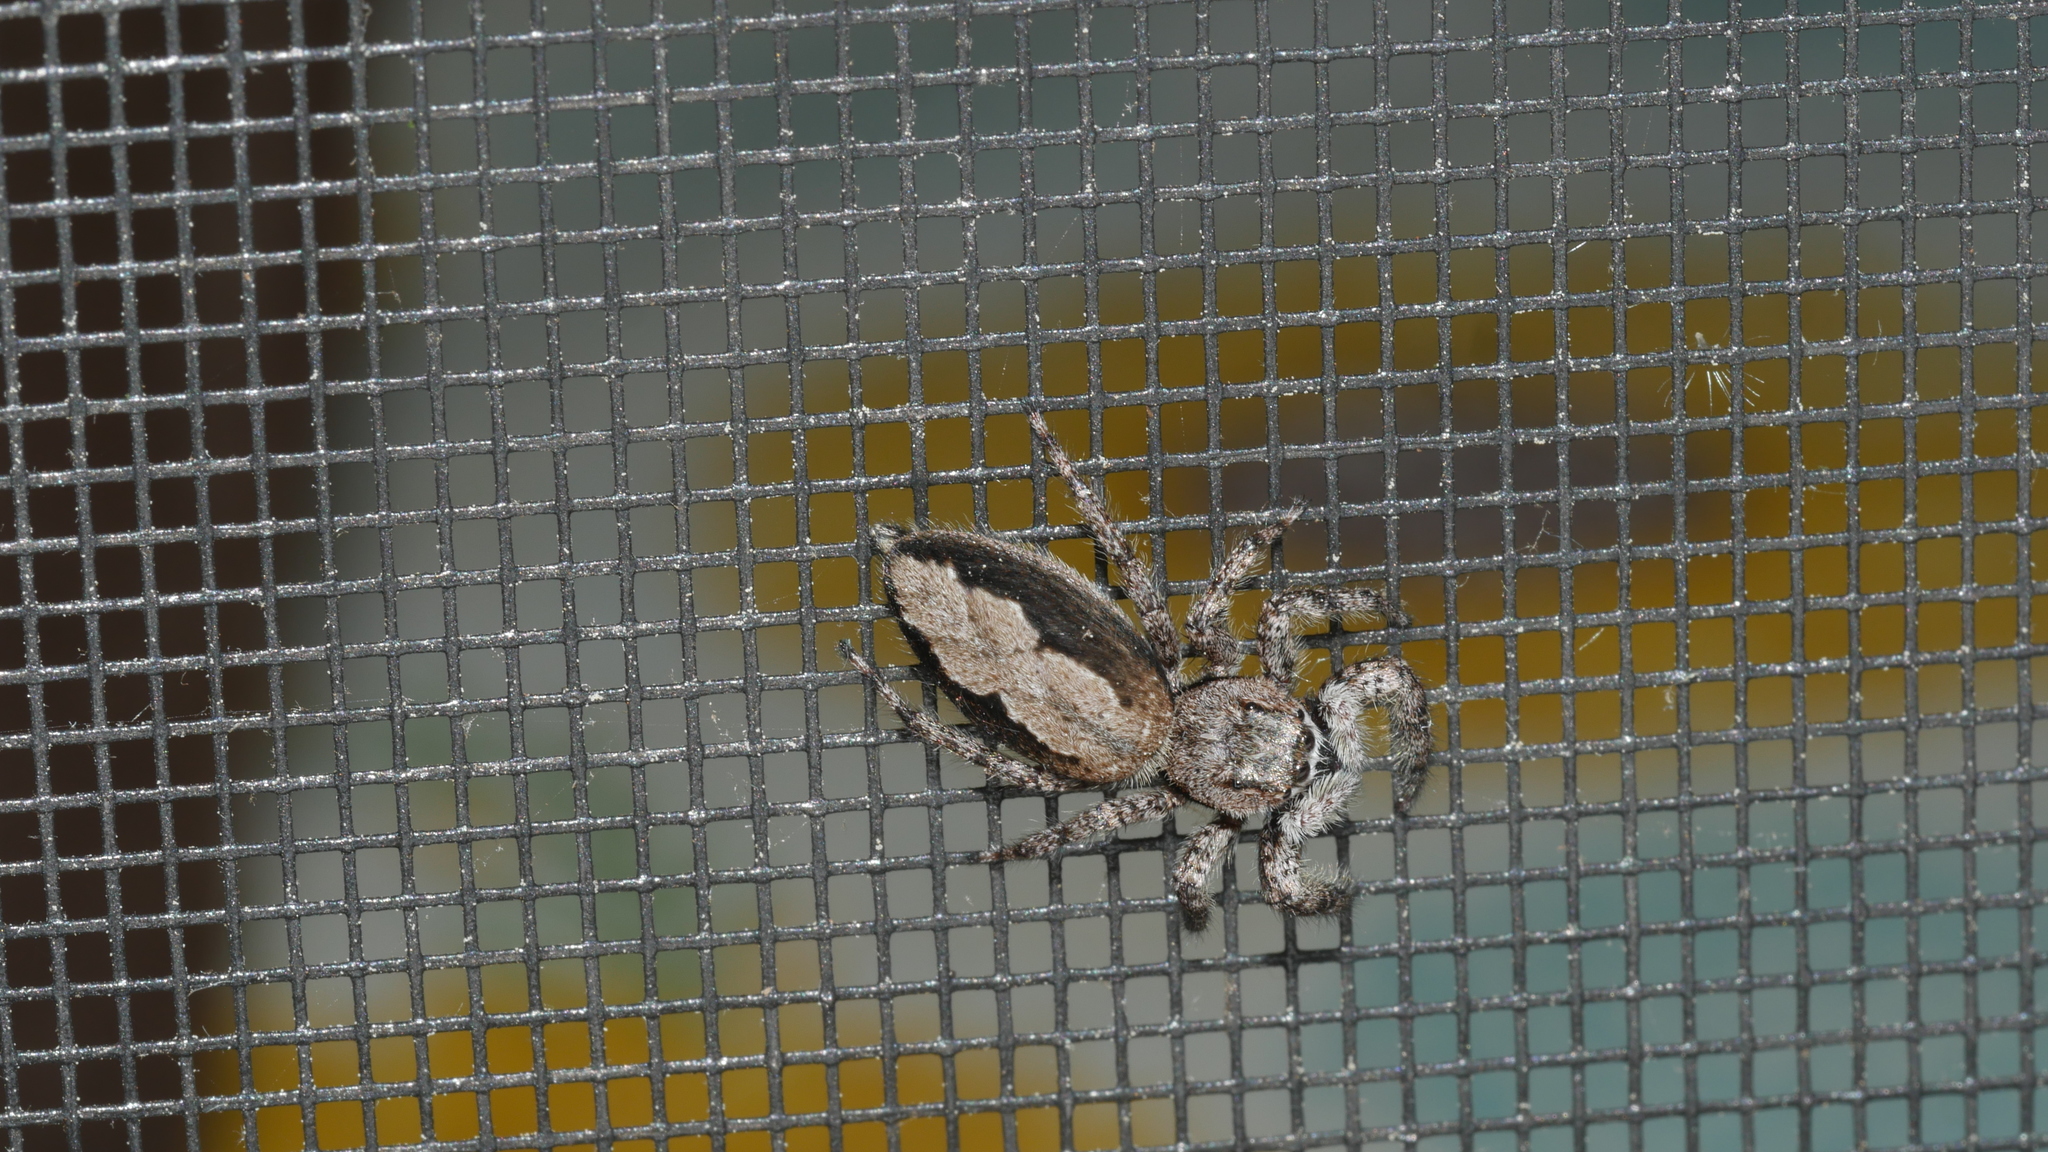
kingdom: Animalia
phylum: Arthropoda
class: Arachnida
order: Araneae
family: Salticidae
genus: Platycryptus
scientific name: Platycryptus undatus
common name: Tan jumping spider
